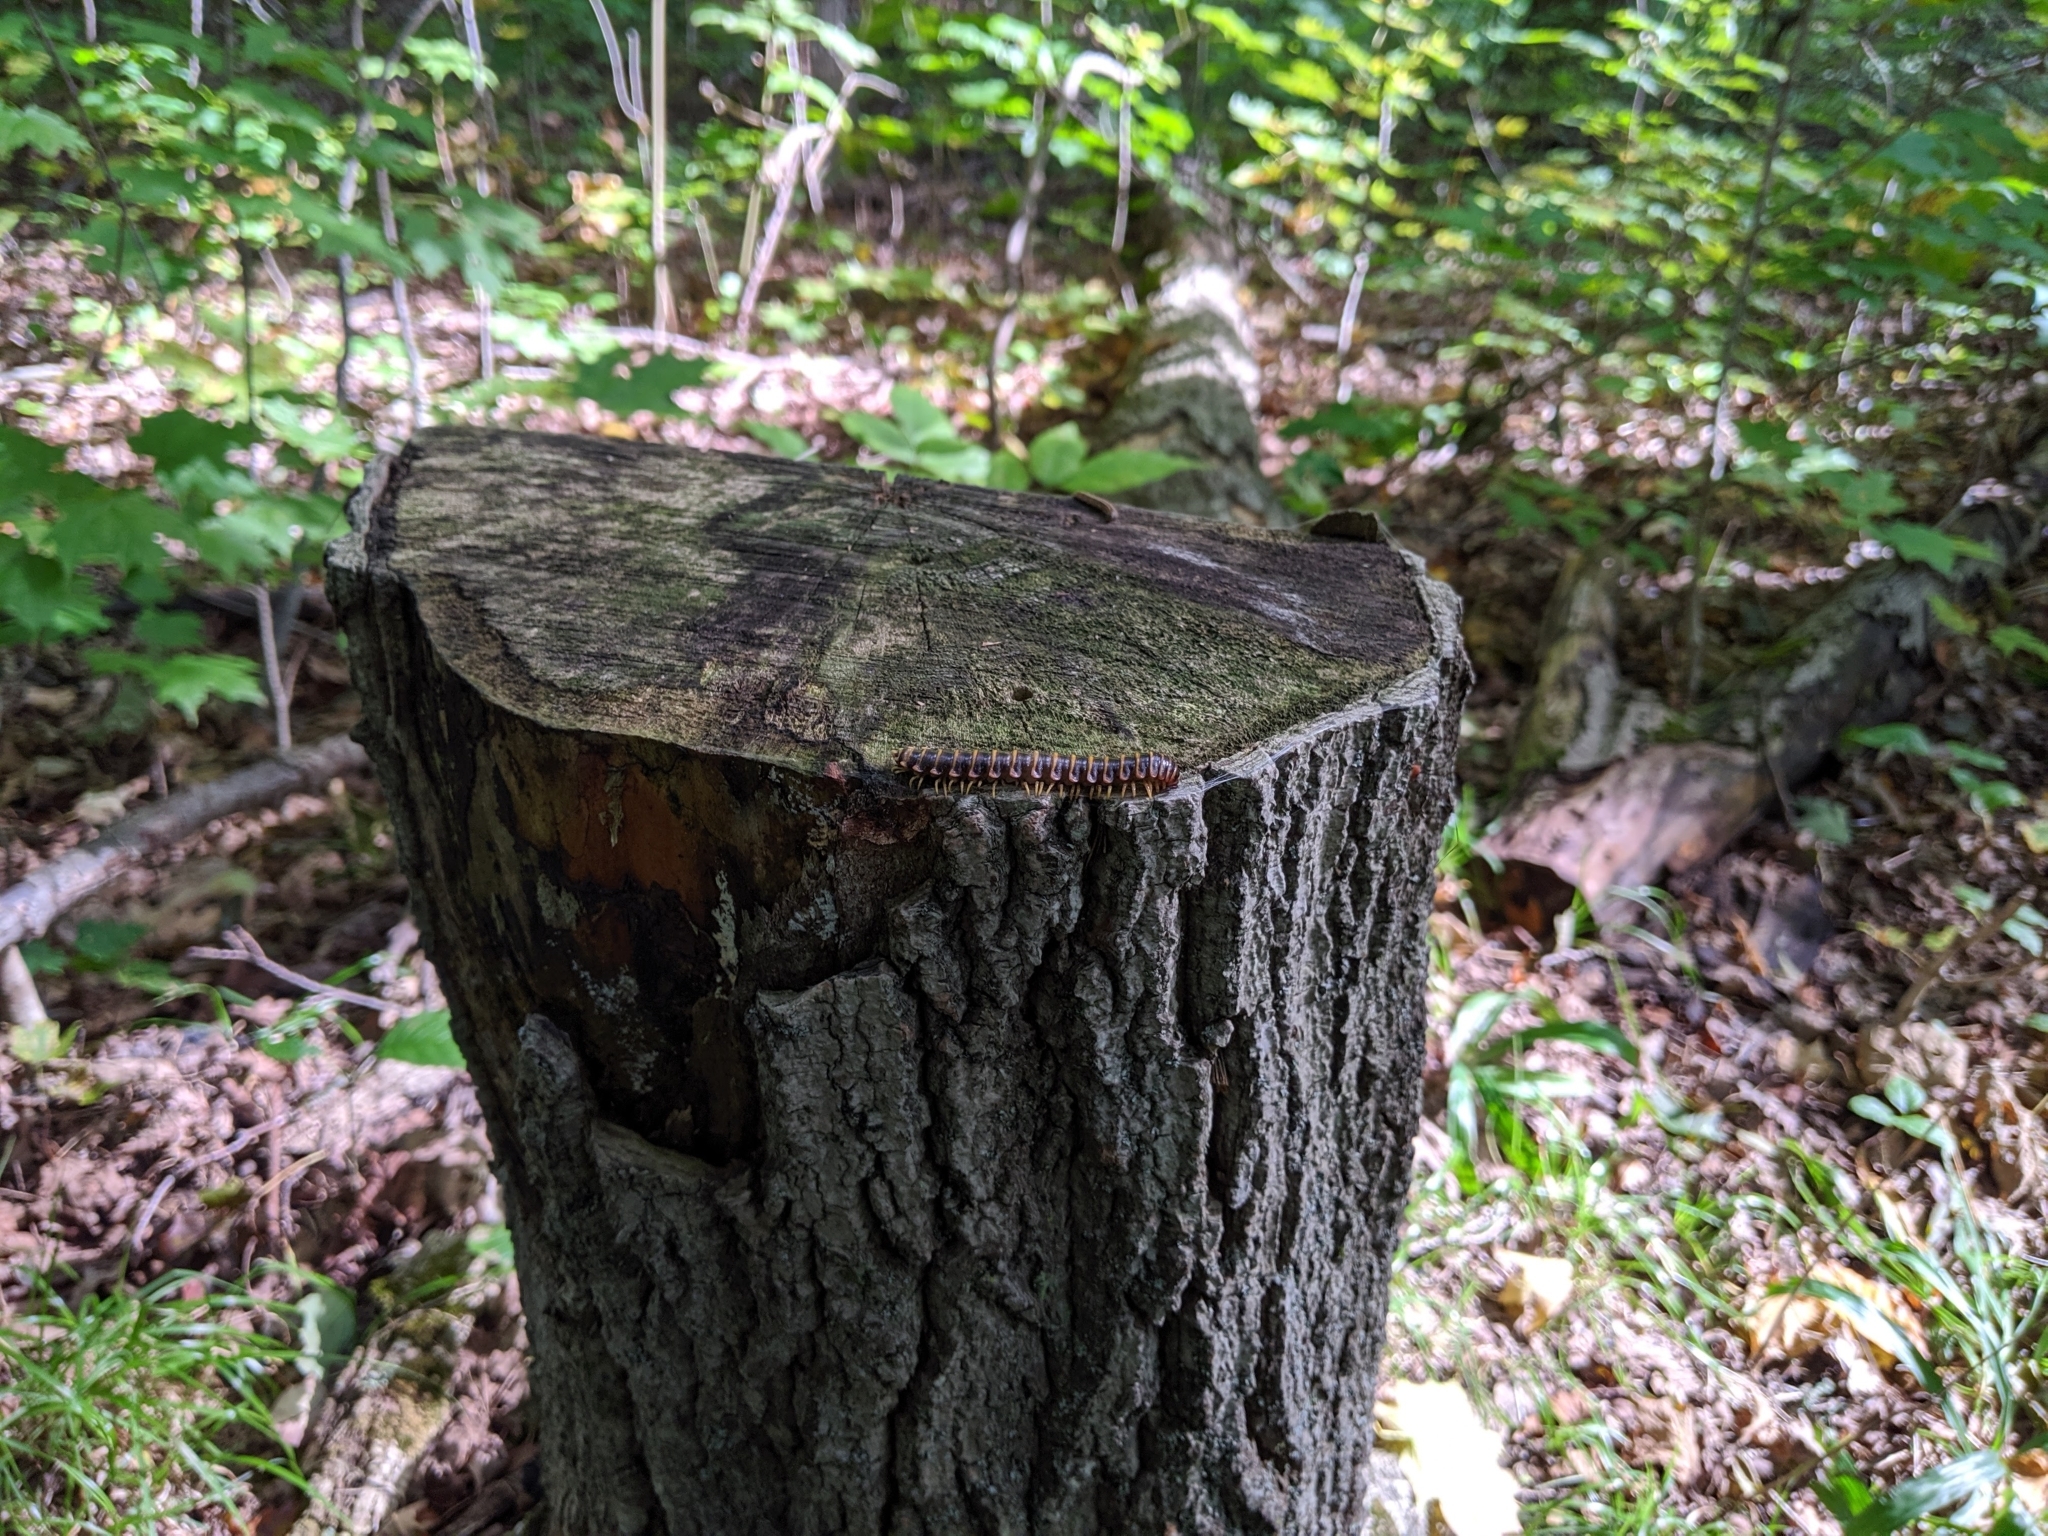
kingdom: Animalia
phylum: Arthropoda
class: Diplopoda
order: Polydesmida
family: Xystodesmidae
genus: Apheloria
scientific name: Apheloria virginiensis
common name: Black-and-gold flat millipede
